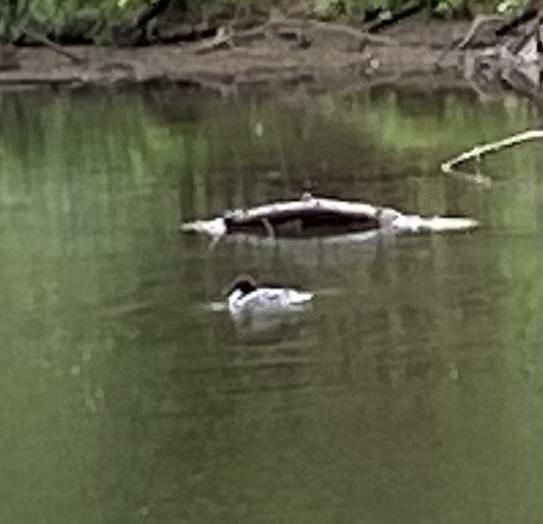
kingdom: Animalia
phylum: Chordata
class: Aves
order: Anseriformes
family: Anatidae
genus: Mergus
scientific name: Mergus merganser
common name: Common merganser
